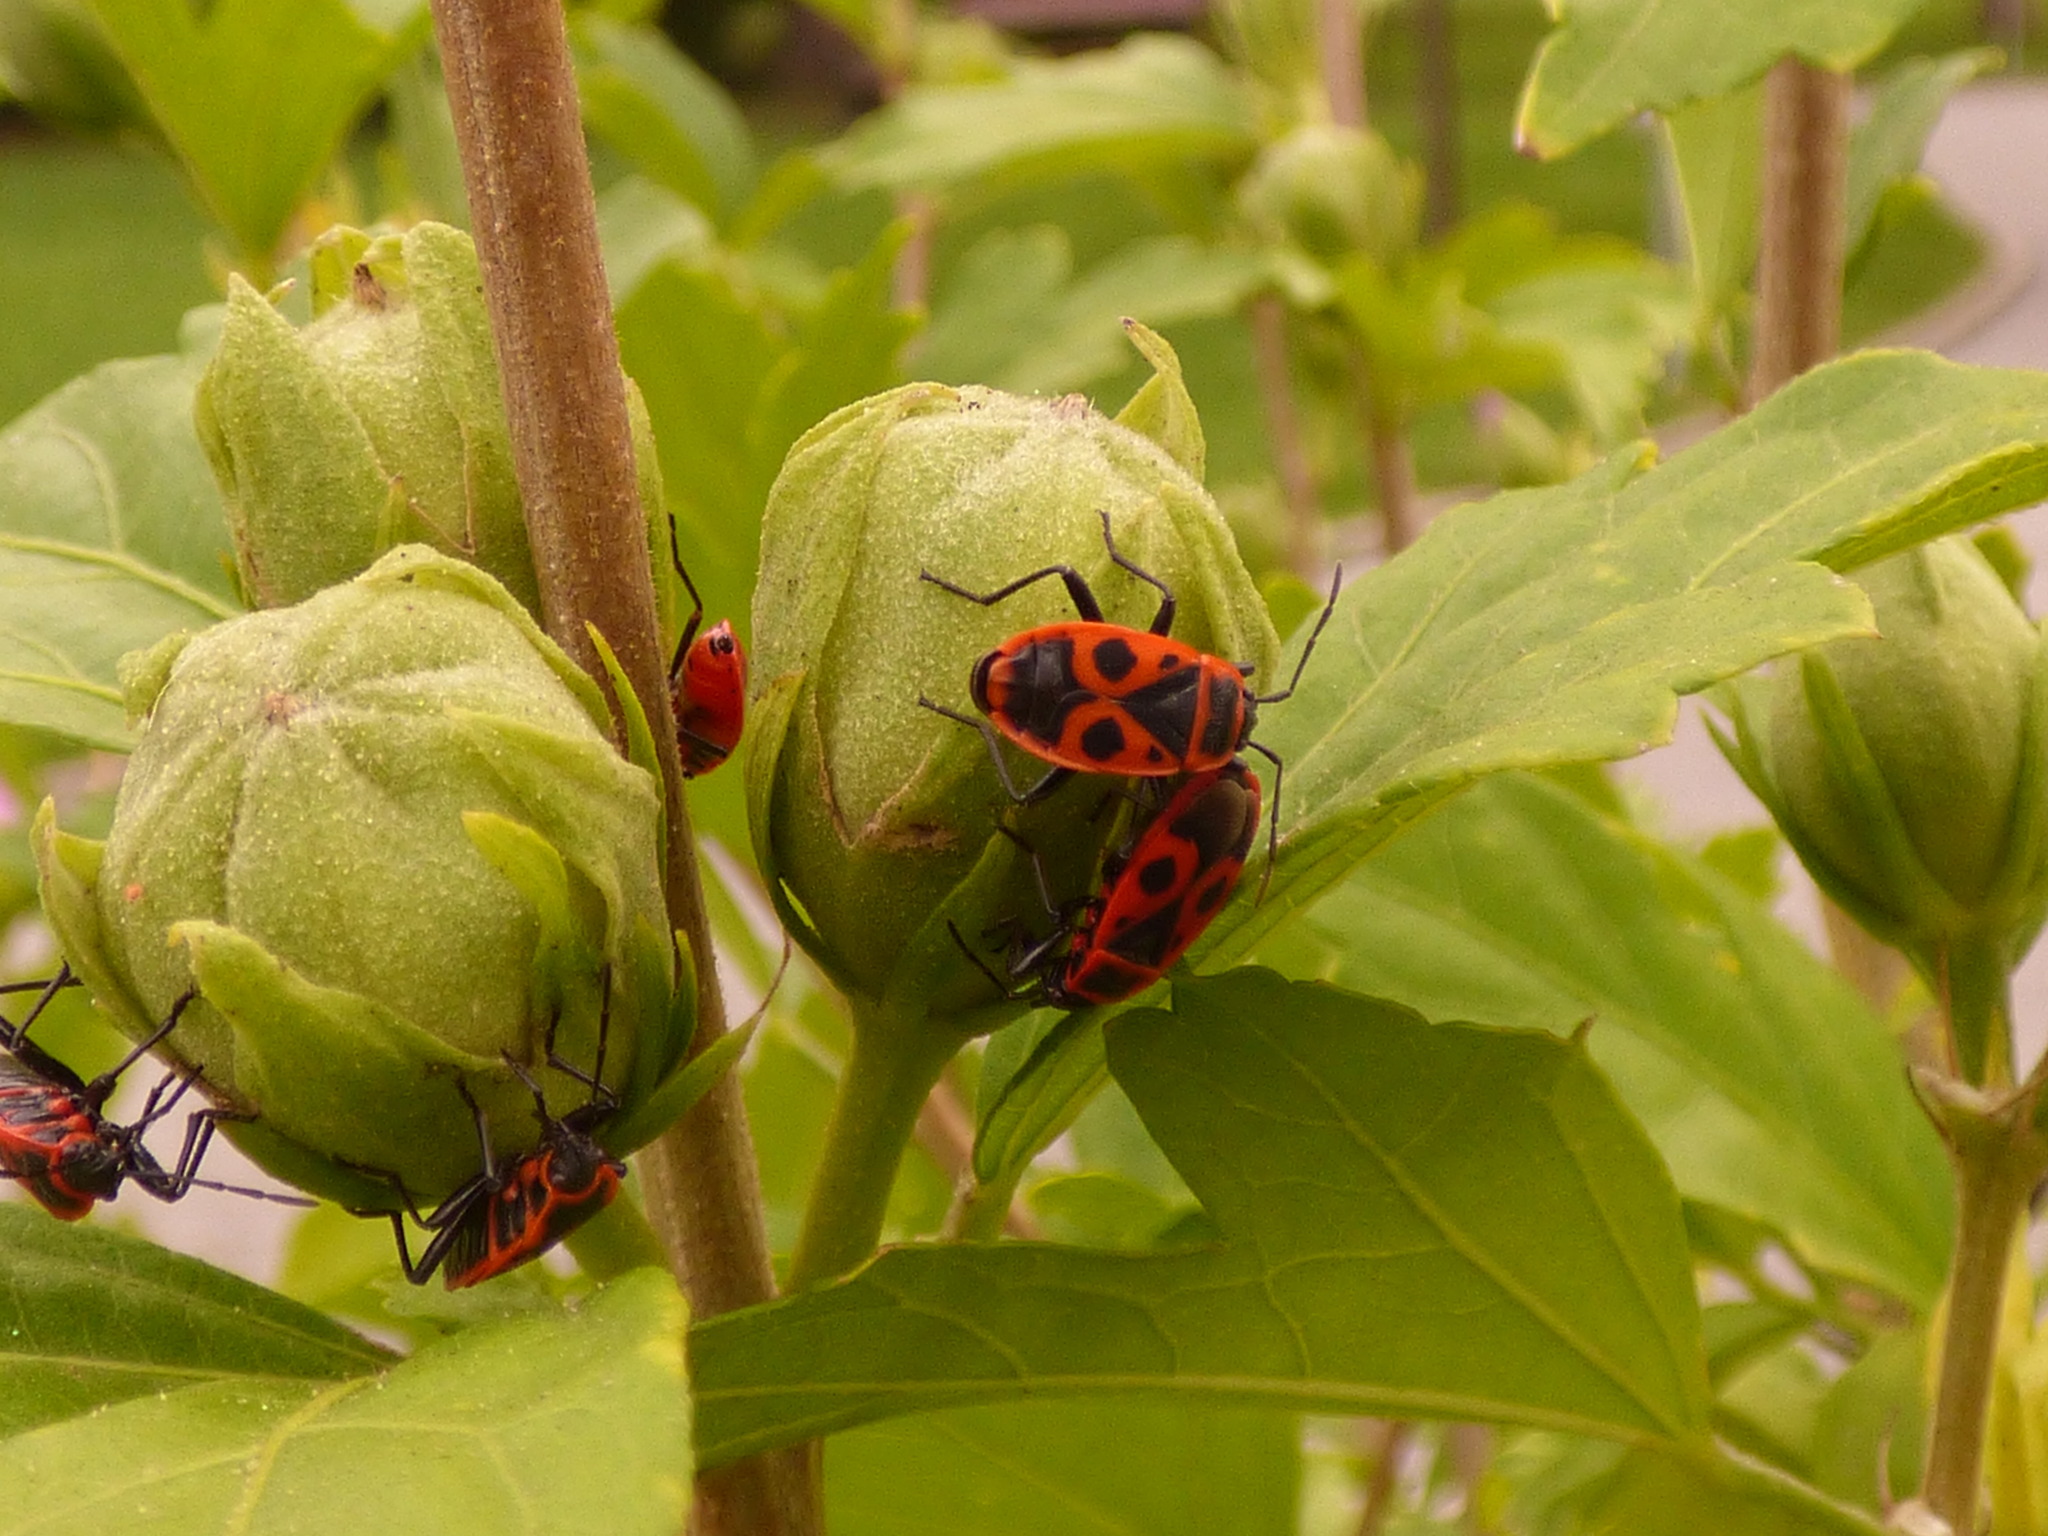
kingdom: Animalia
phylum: Arthropoda
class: Insecta
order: Hemiptera
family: Pyrrhocoridae
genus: Pyrrhocoris
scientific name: Pyrrhocoris apterus
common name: Firebug
